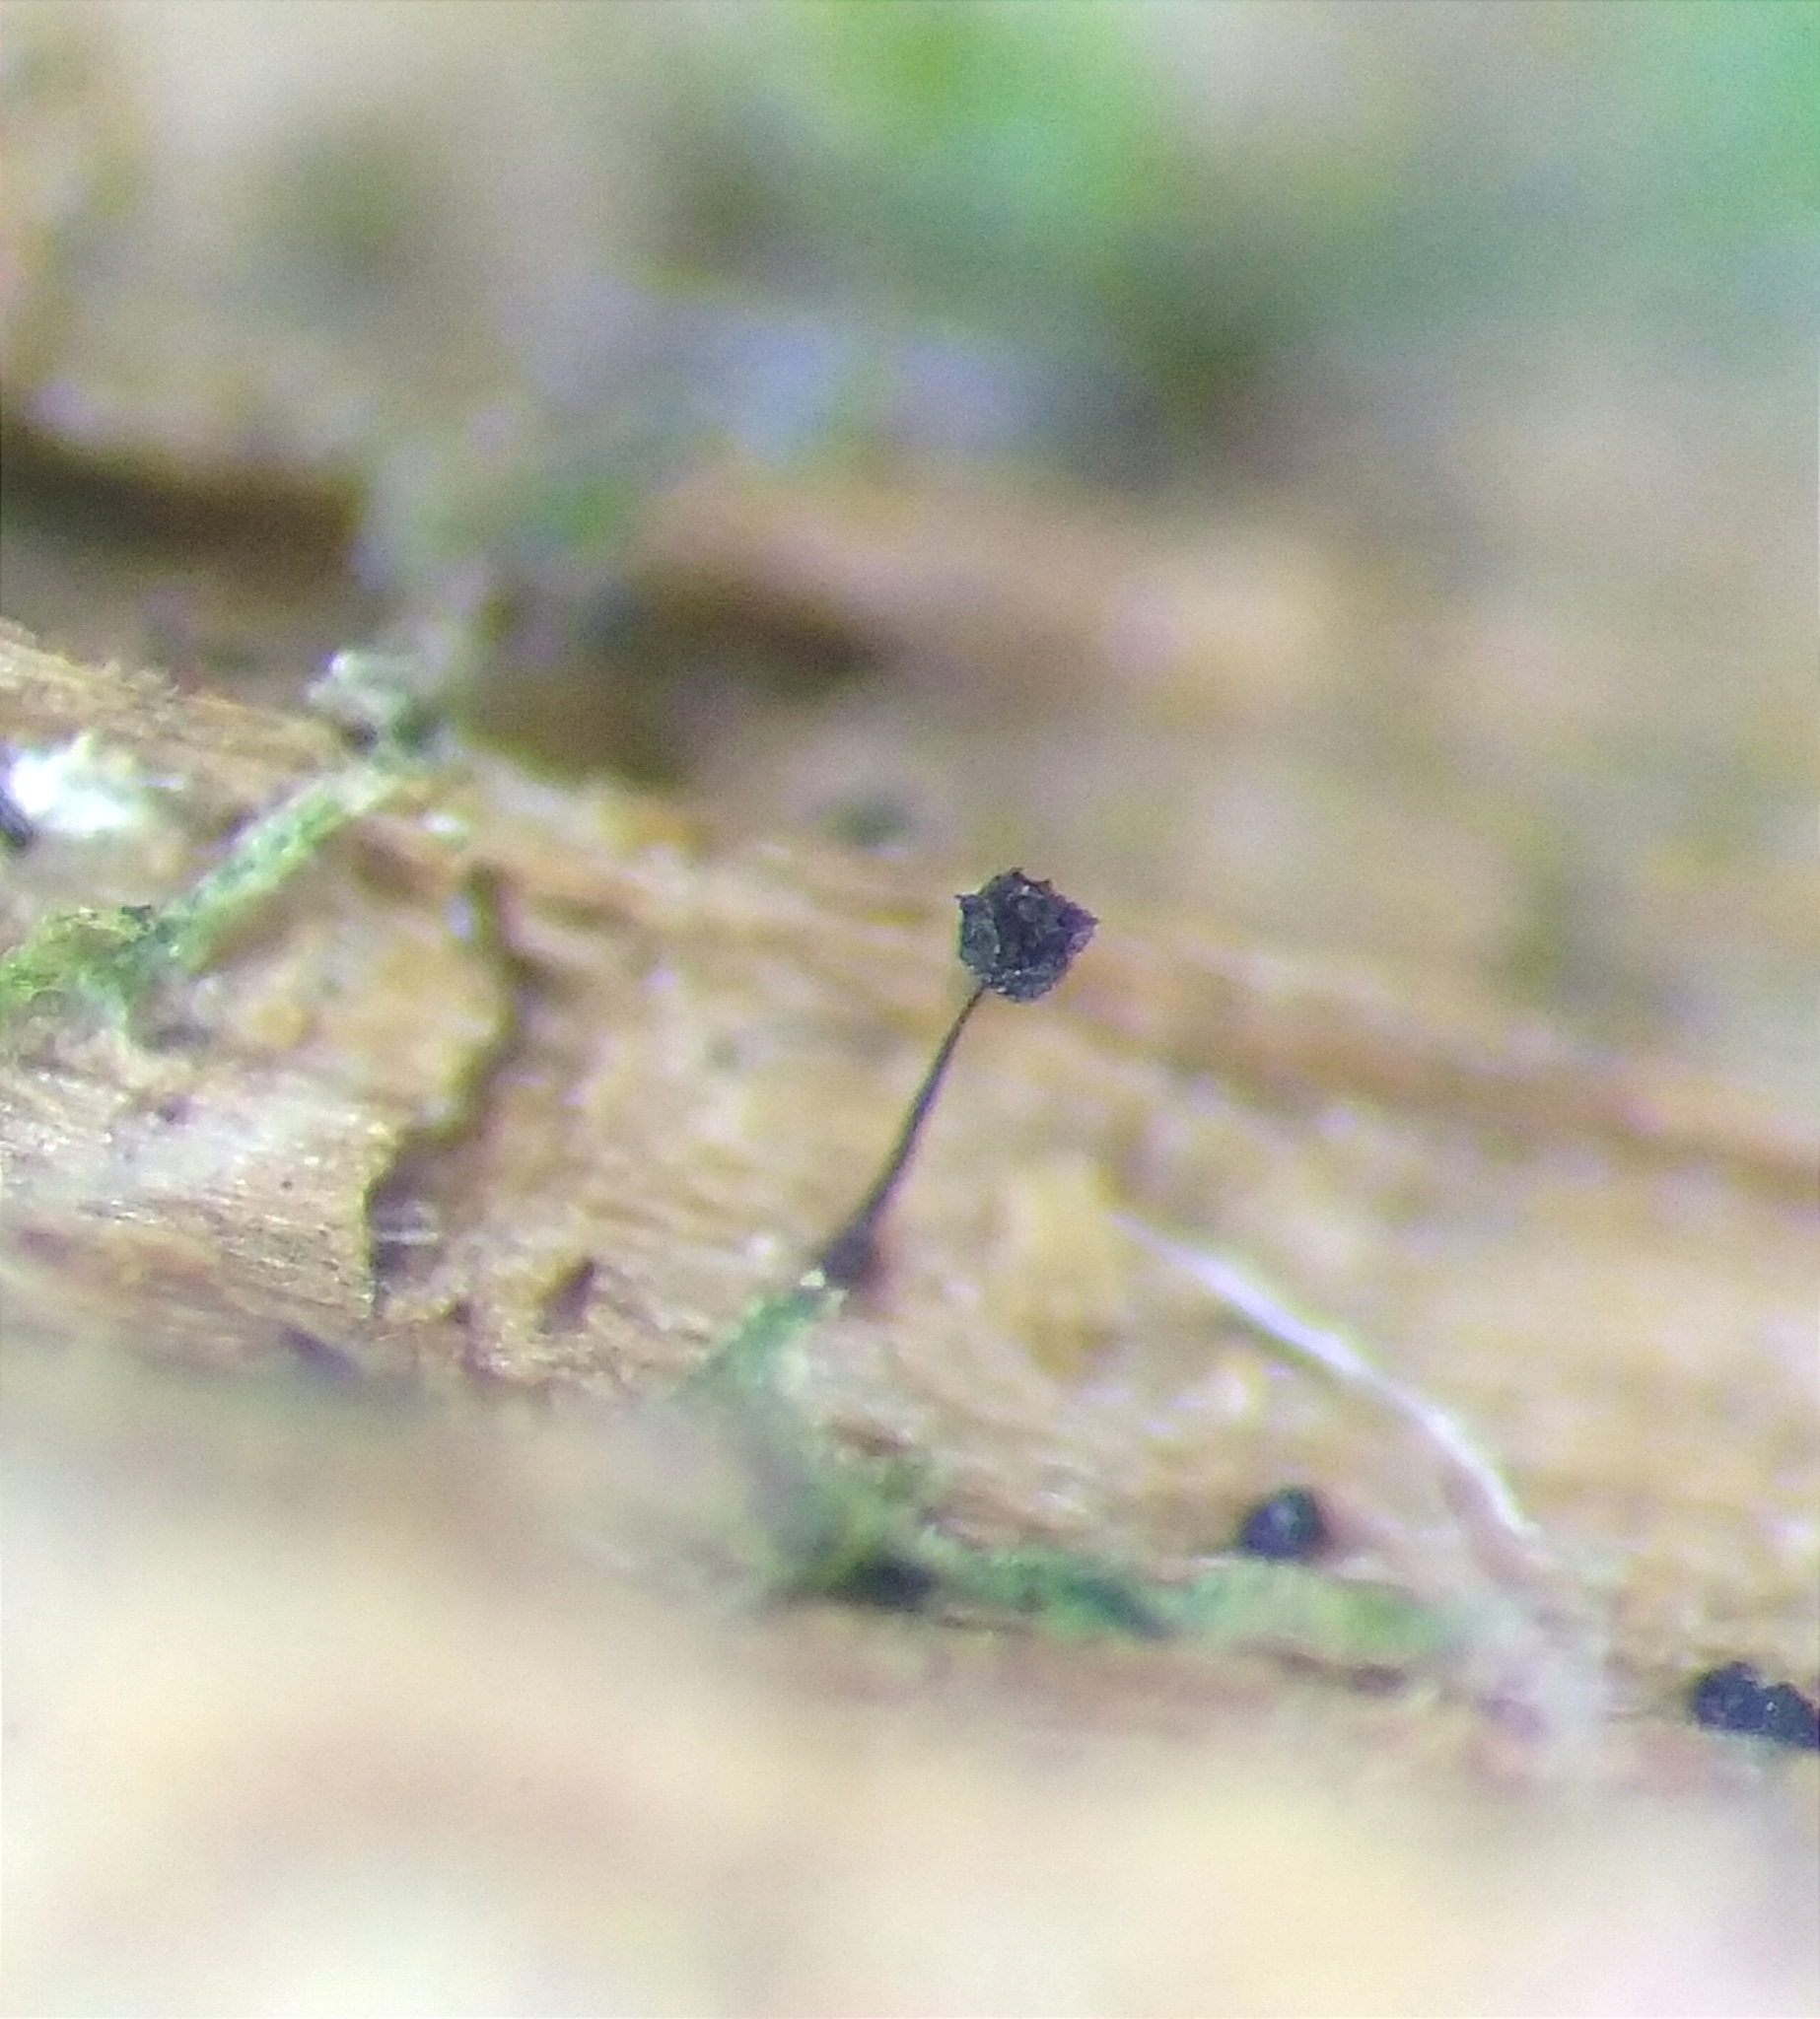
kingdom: Protozoa
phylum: Mycetozoa
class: Myxomycetes
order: Echinosteliales
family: Clastodermataceae
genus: Barbeyella
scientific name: Barbeyella minutissima
